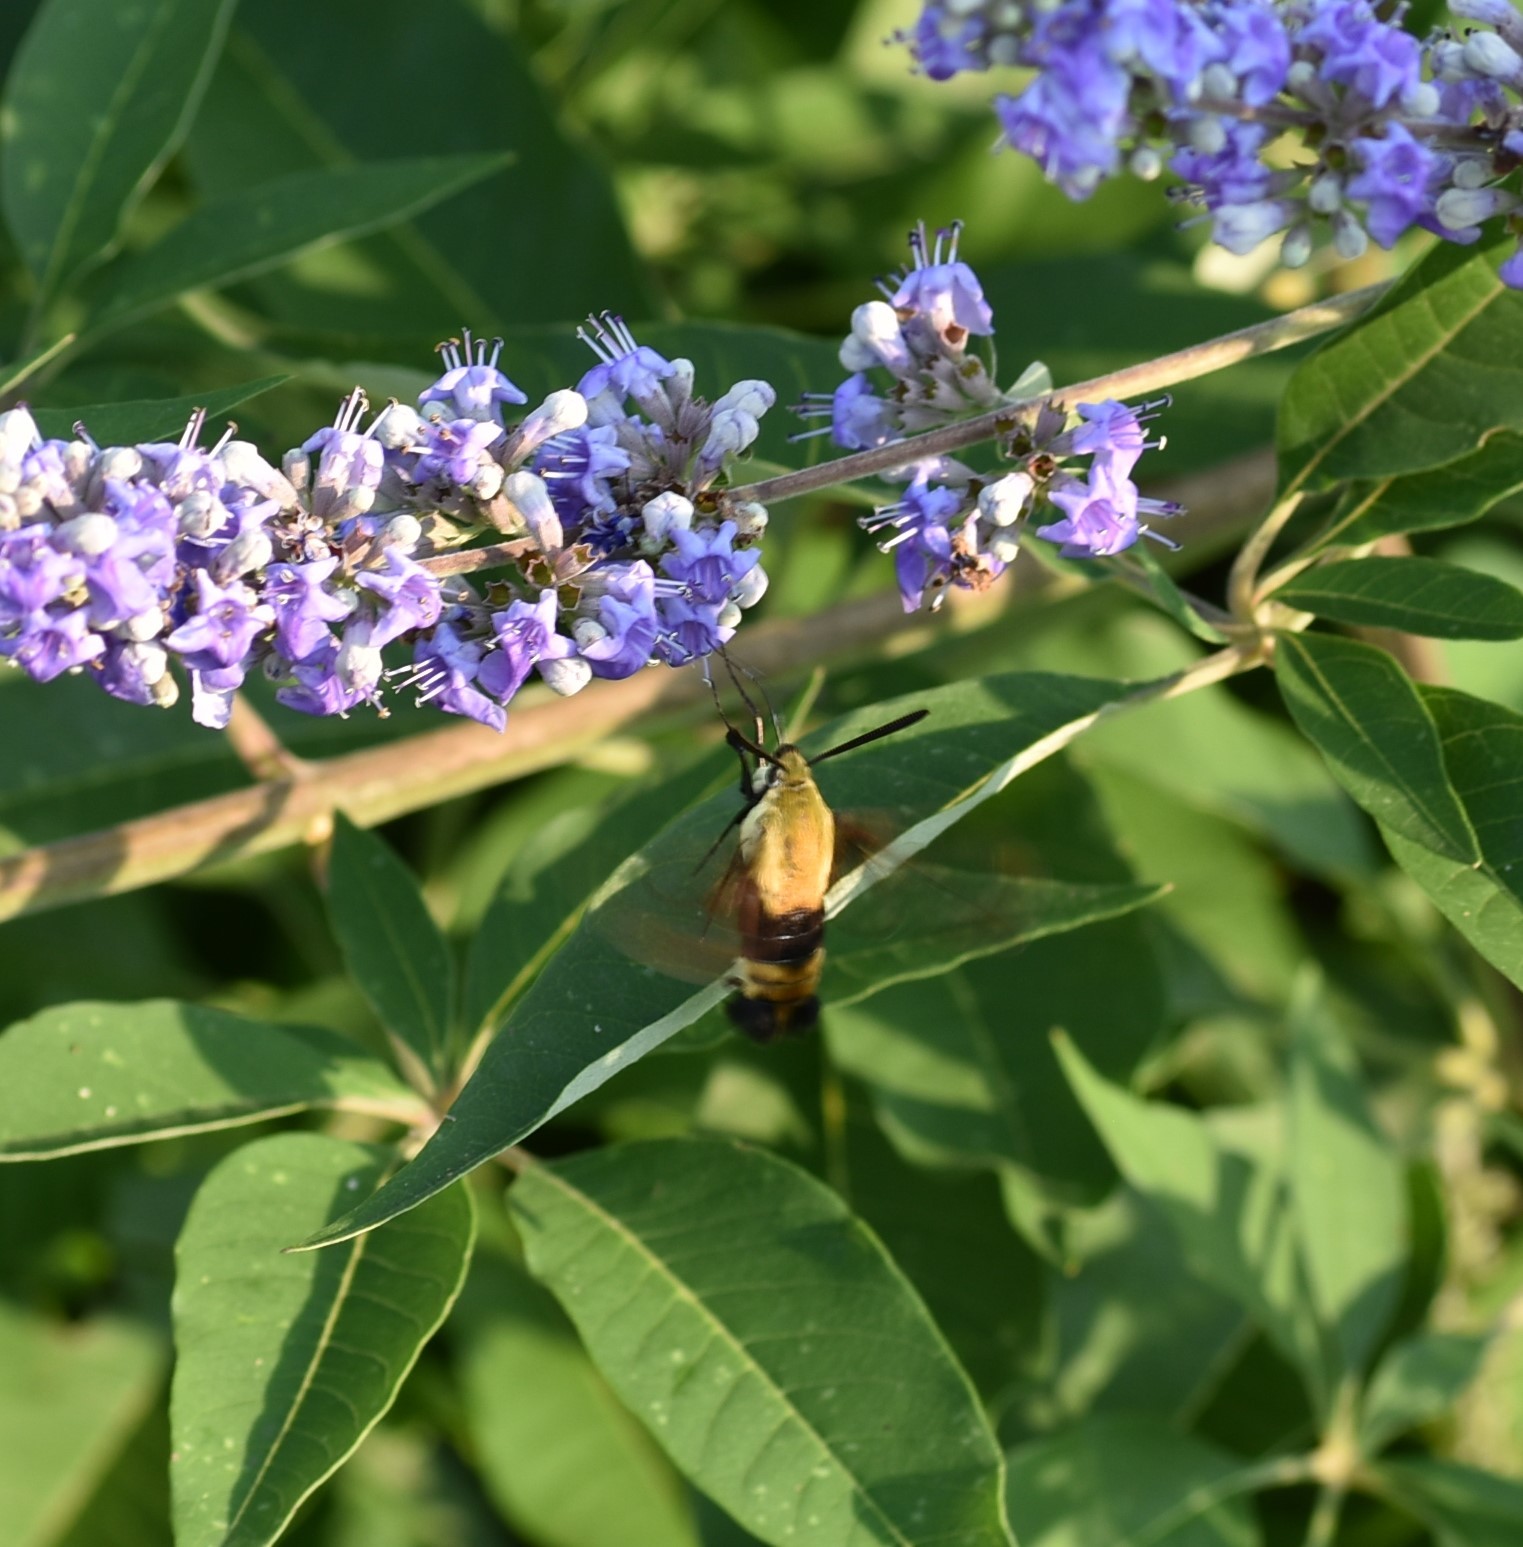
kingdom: Animalia
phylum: Arthropoda
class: Insecta
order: Lepidoptera
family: Sphingidae
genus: Hemaris
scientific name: Hemaris diffinis
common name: Bumblebee moth
